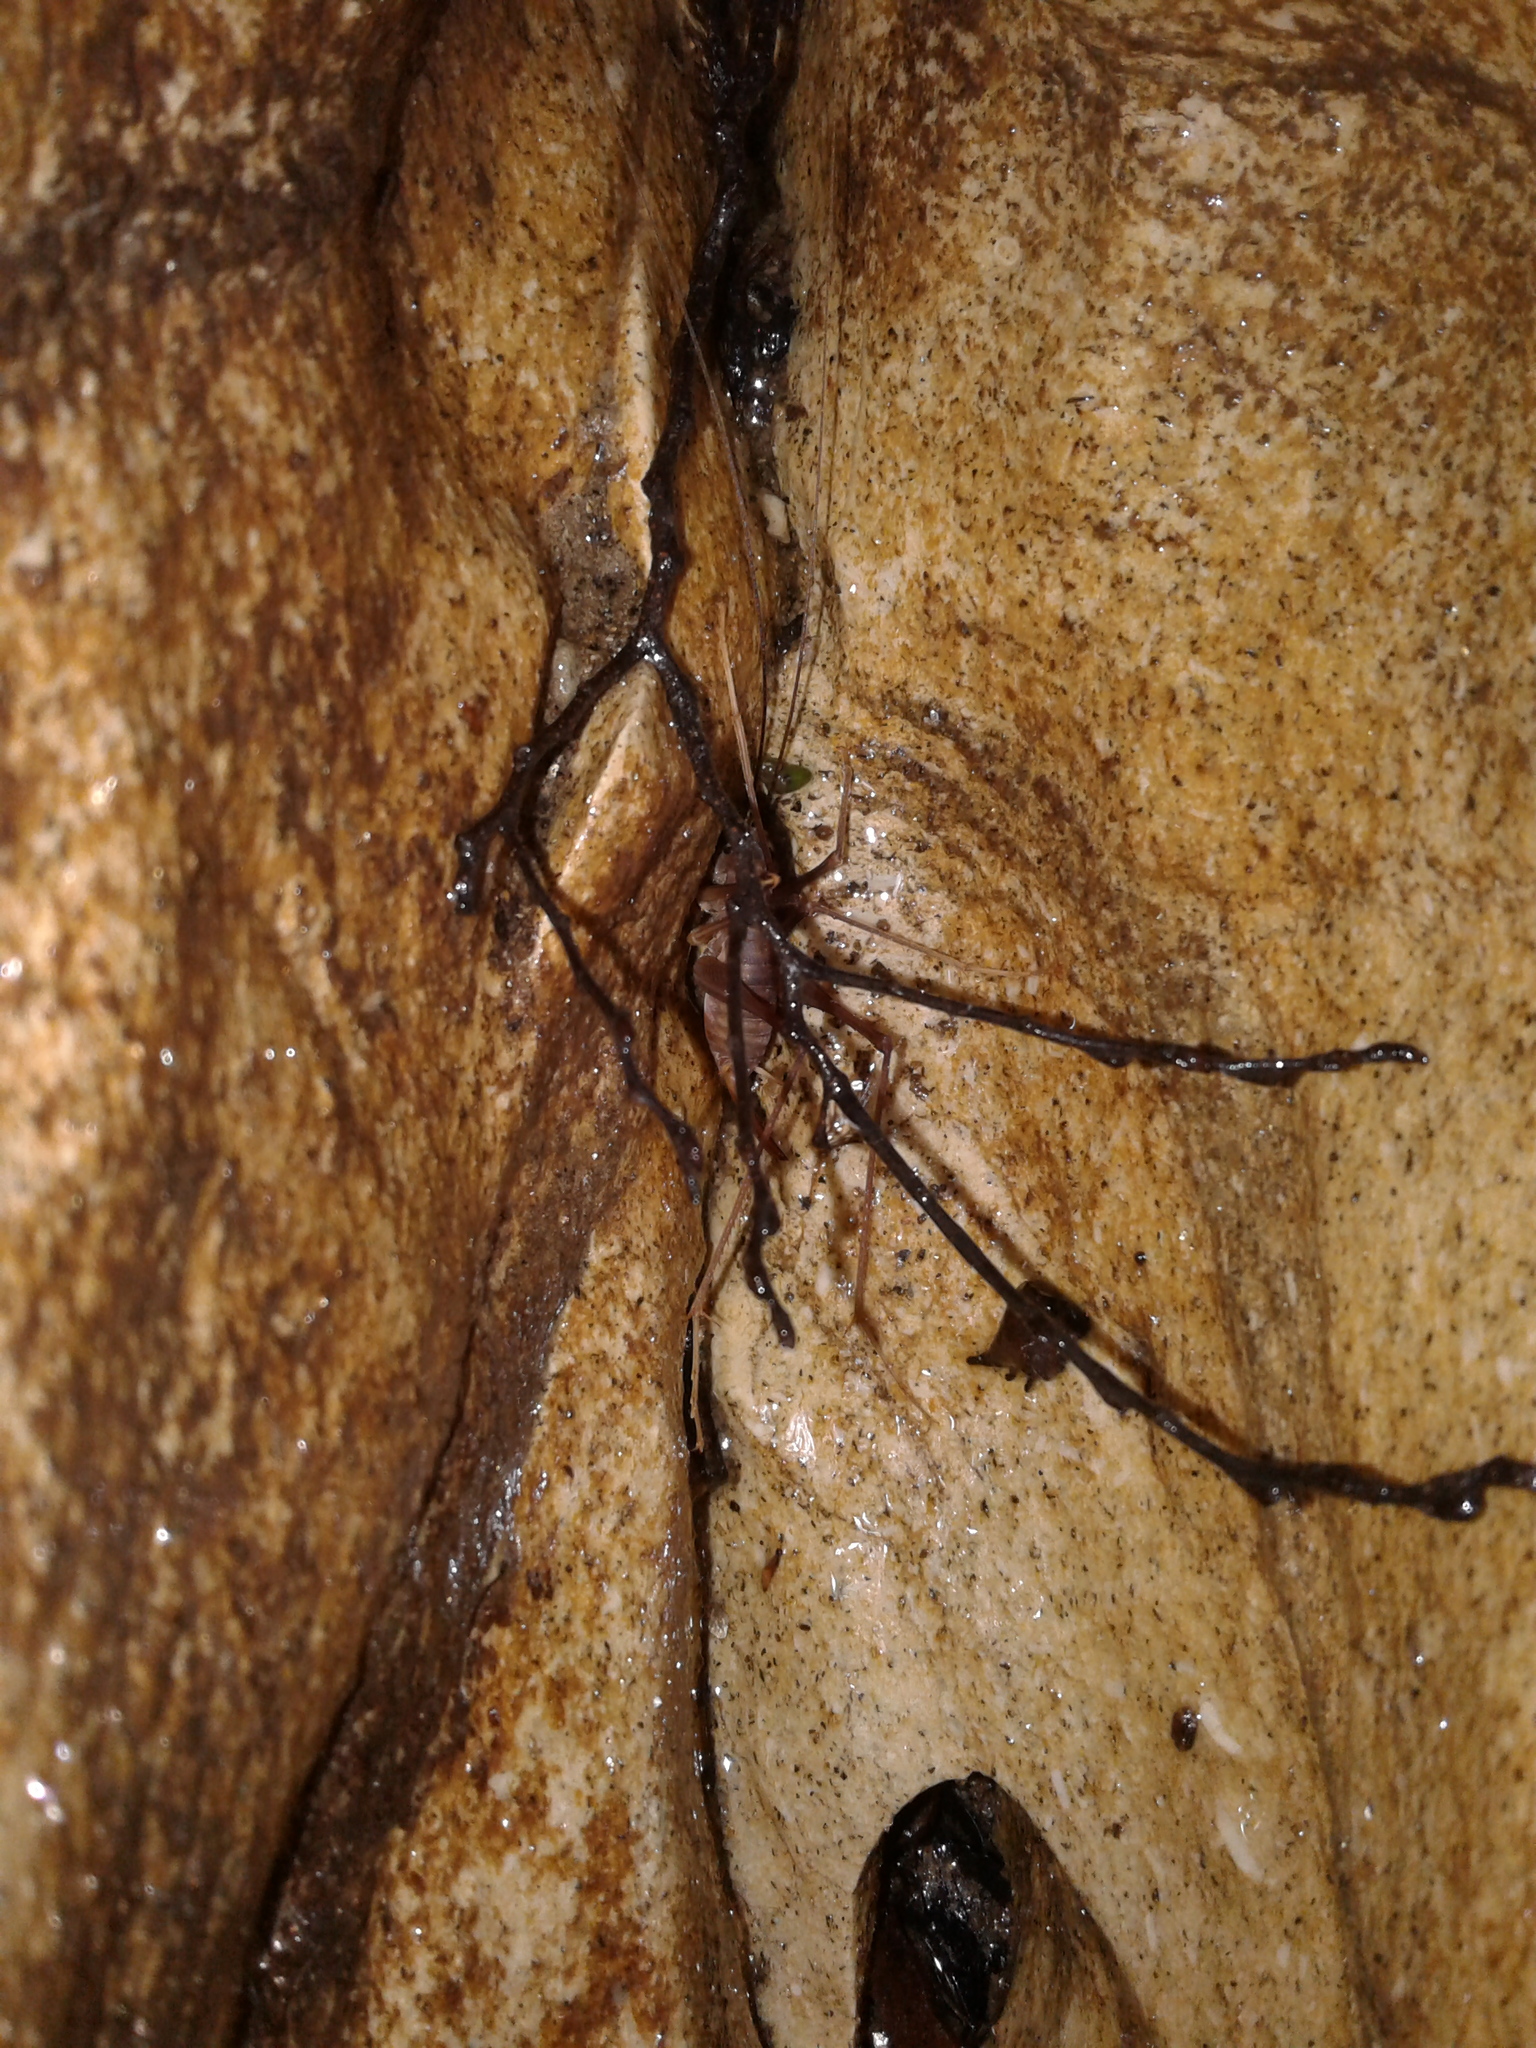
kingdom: Animalia
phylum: Arthropoda
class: Insecta
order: Orthoptera
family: Macropathidae
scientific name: Macropathidae
